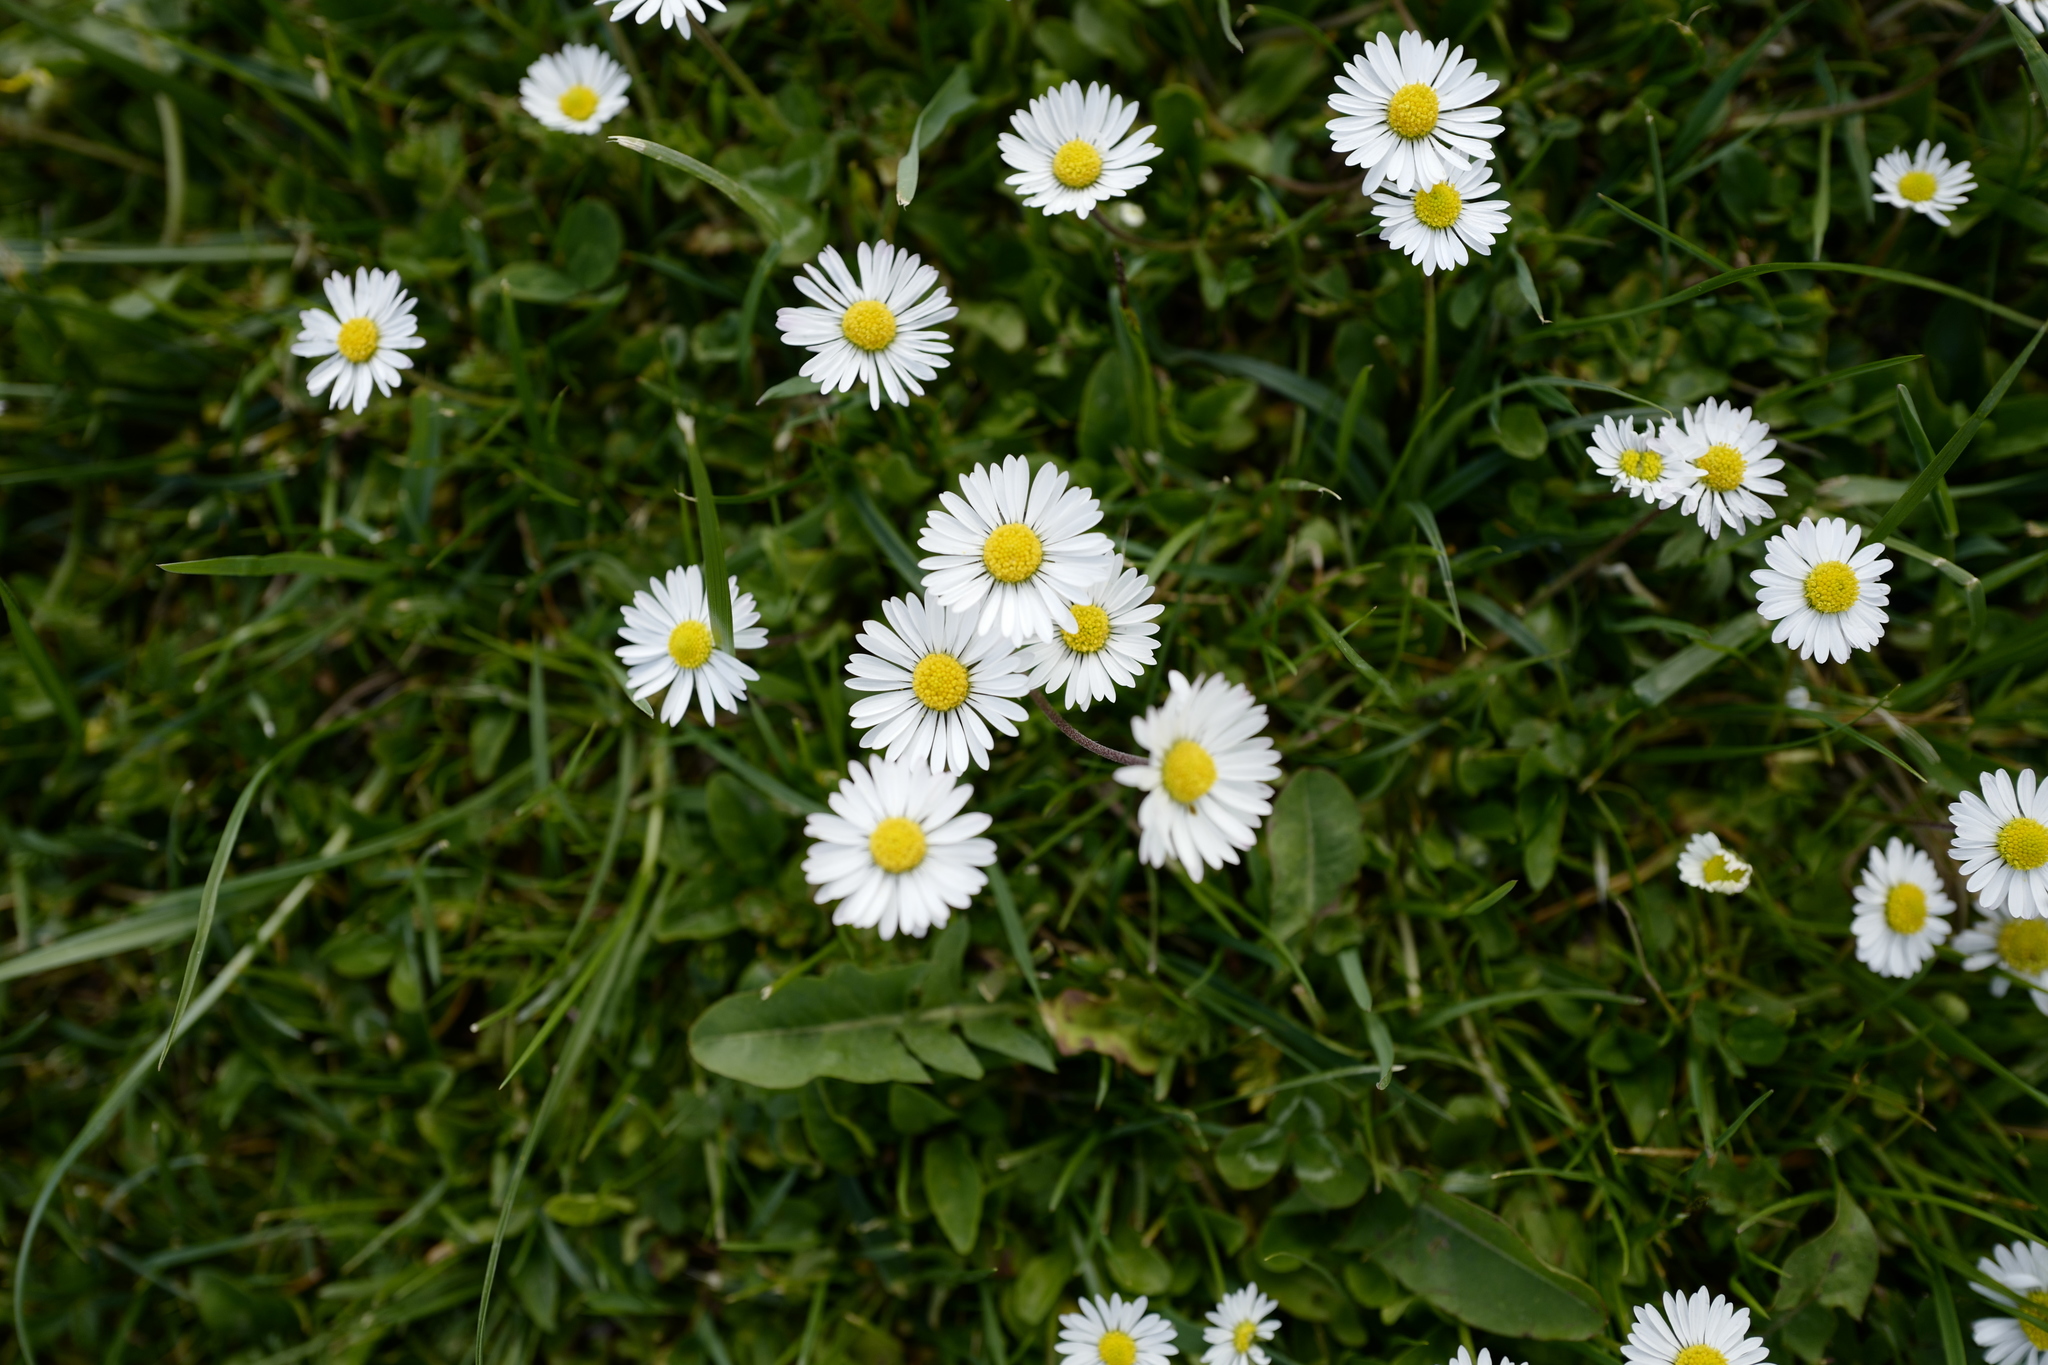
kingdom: Plantae
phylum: Tracheophyta
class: Magnoliopsida
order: Asterales
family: Asteraceae
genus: Bellis
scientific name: Bellis perennis
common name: Lawndaisy
